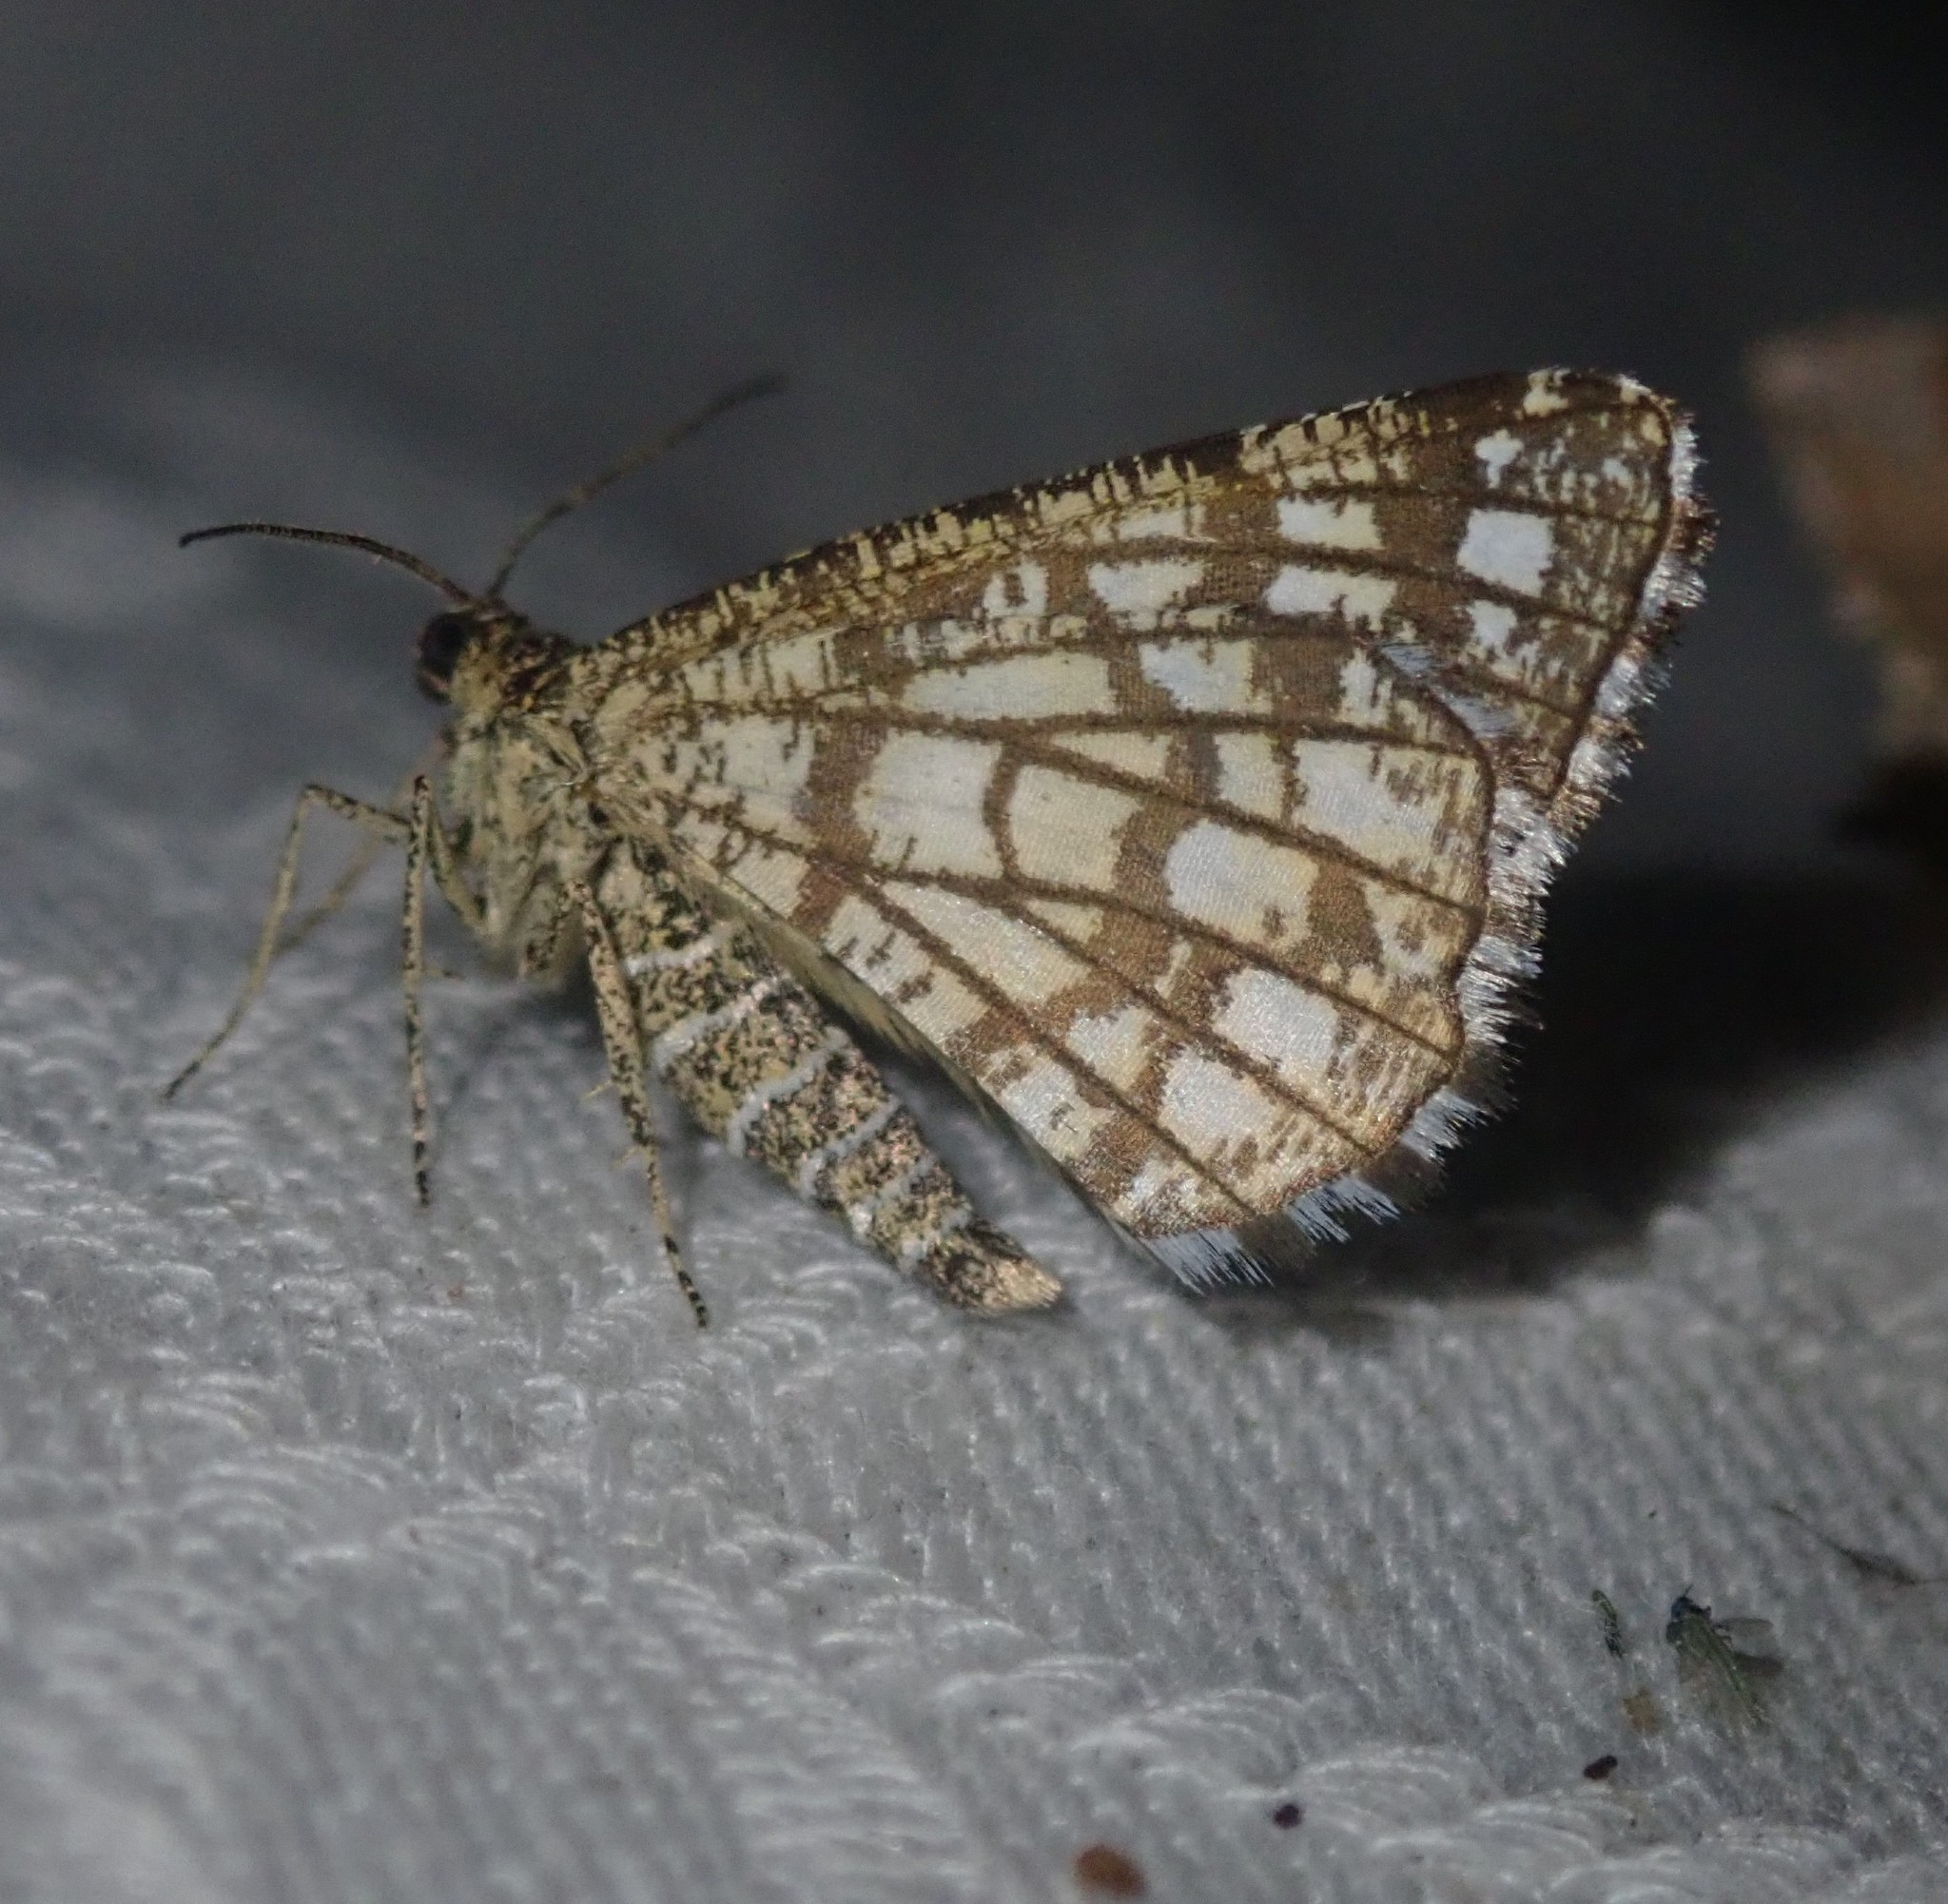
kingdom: Animalia
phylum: Arthropoda
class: Insecta
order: Lepidoptera
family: Geometridae
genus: Chiasmia
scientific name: Chiasmia clathrata
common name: Latticed heath
